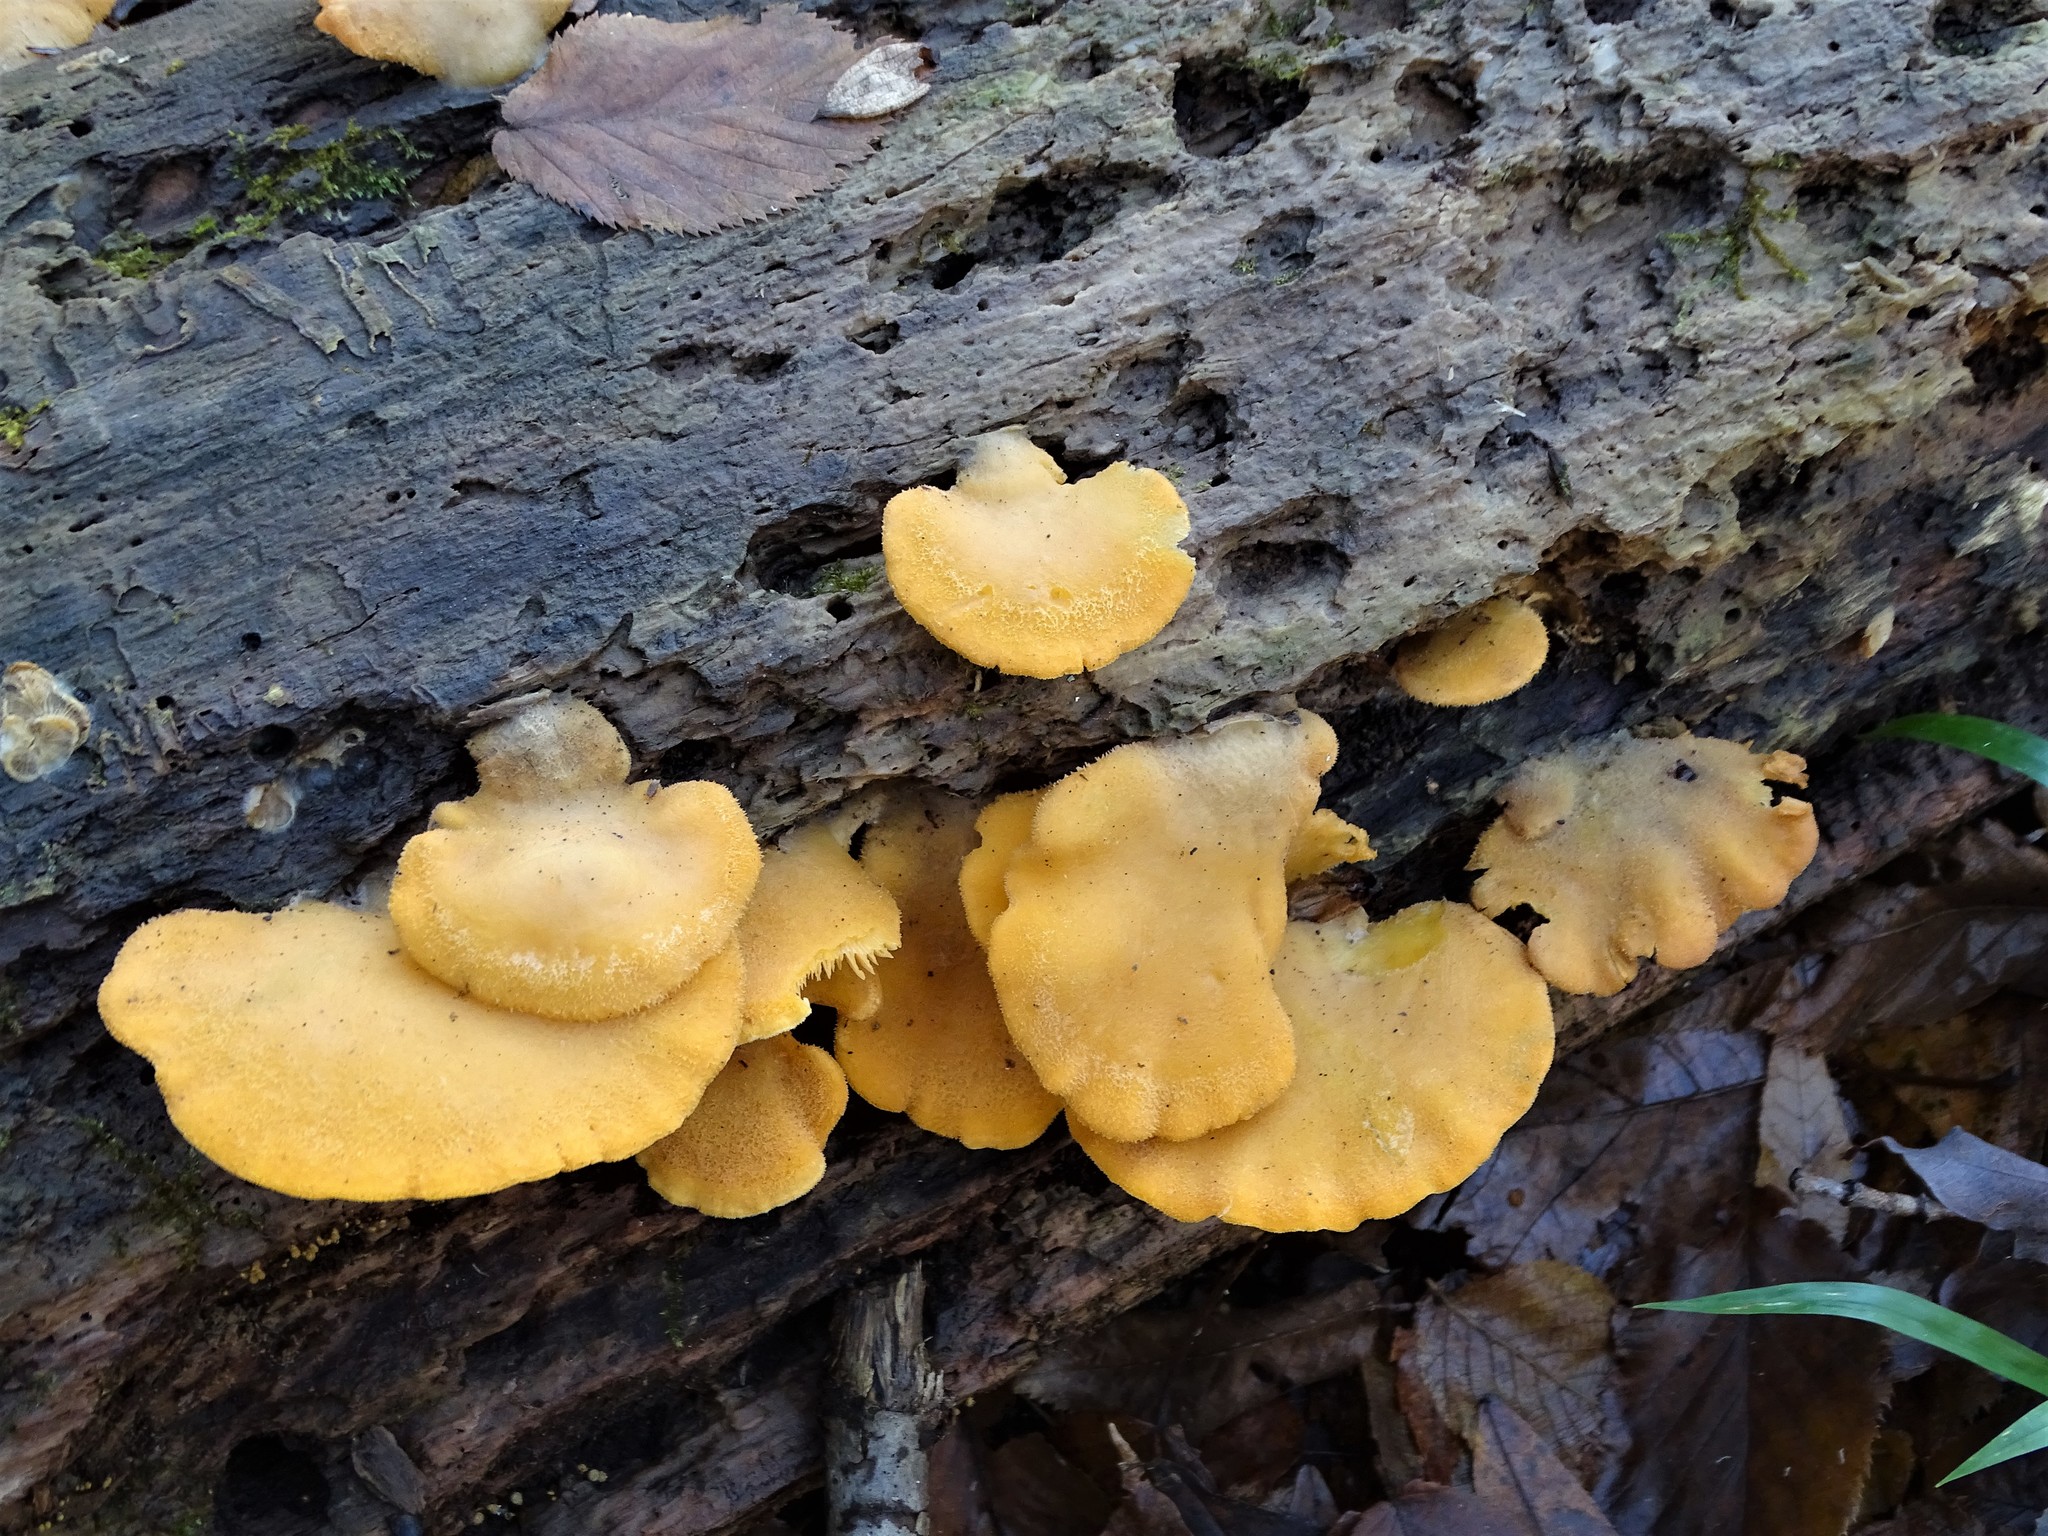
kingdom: Fungi
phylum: Basidiomycota
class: Agaricomycetes
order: Agaricales
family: Phyllotopsidaceae
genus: Phyllotopsis
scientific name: Phyllotopsis nidulans
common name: Orange mock oyster
